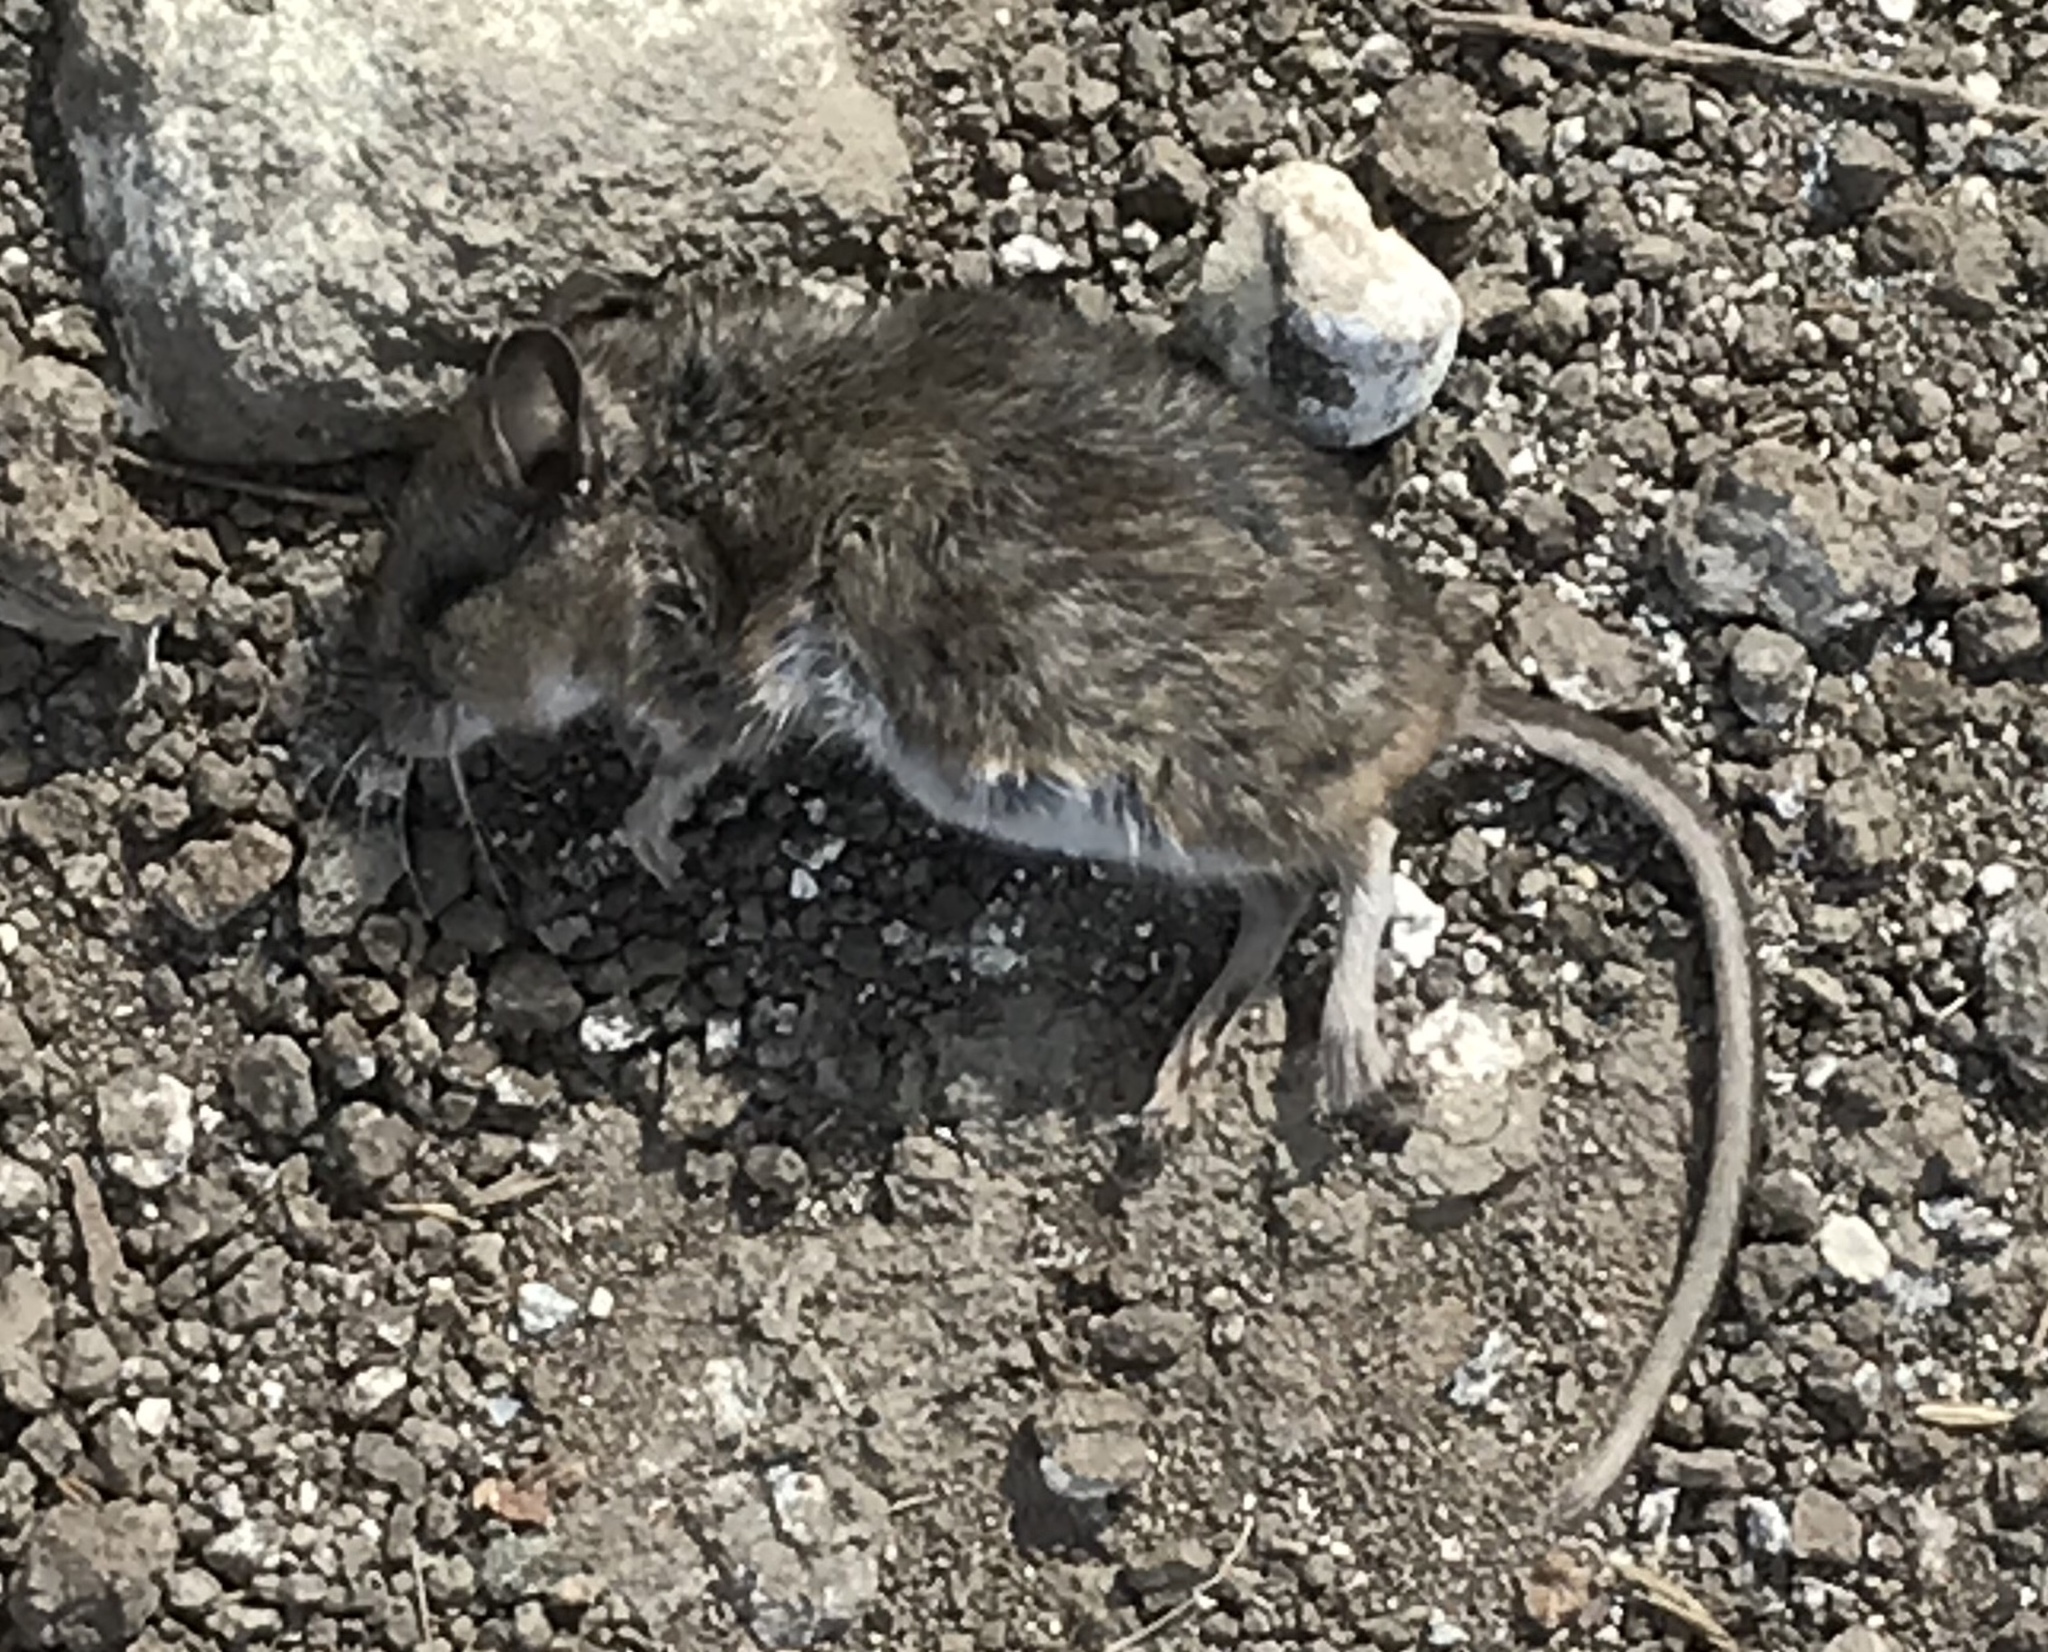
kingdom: Animalia
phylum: Chordata
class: Mammalia
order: Rodentia
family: Cricetidae
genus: Peromyscus
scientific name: Peromyscus maniculatus
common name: Deer mouse
